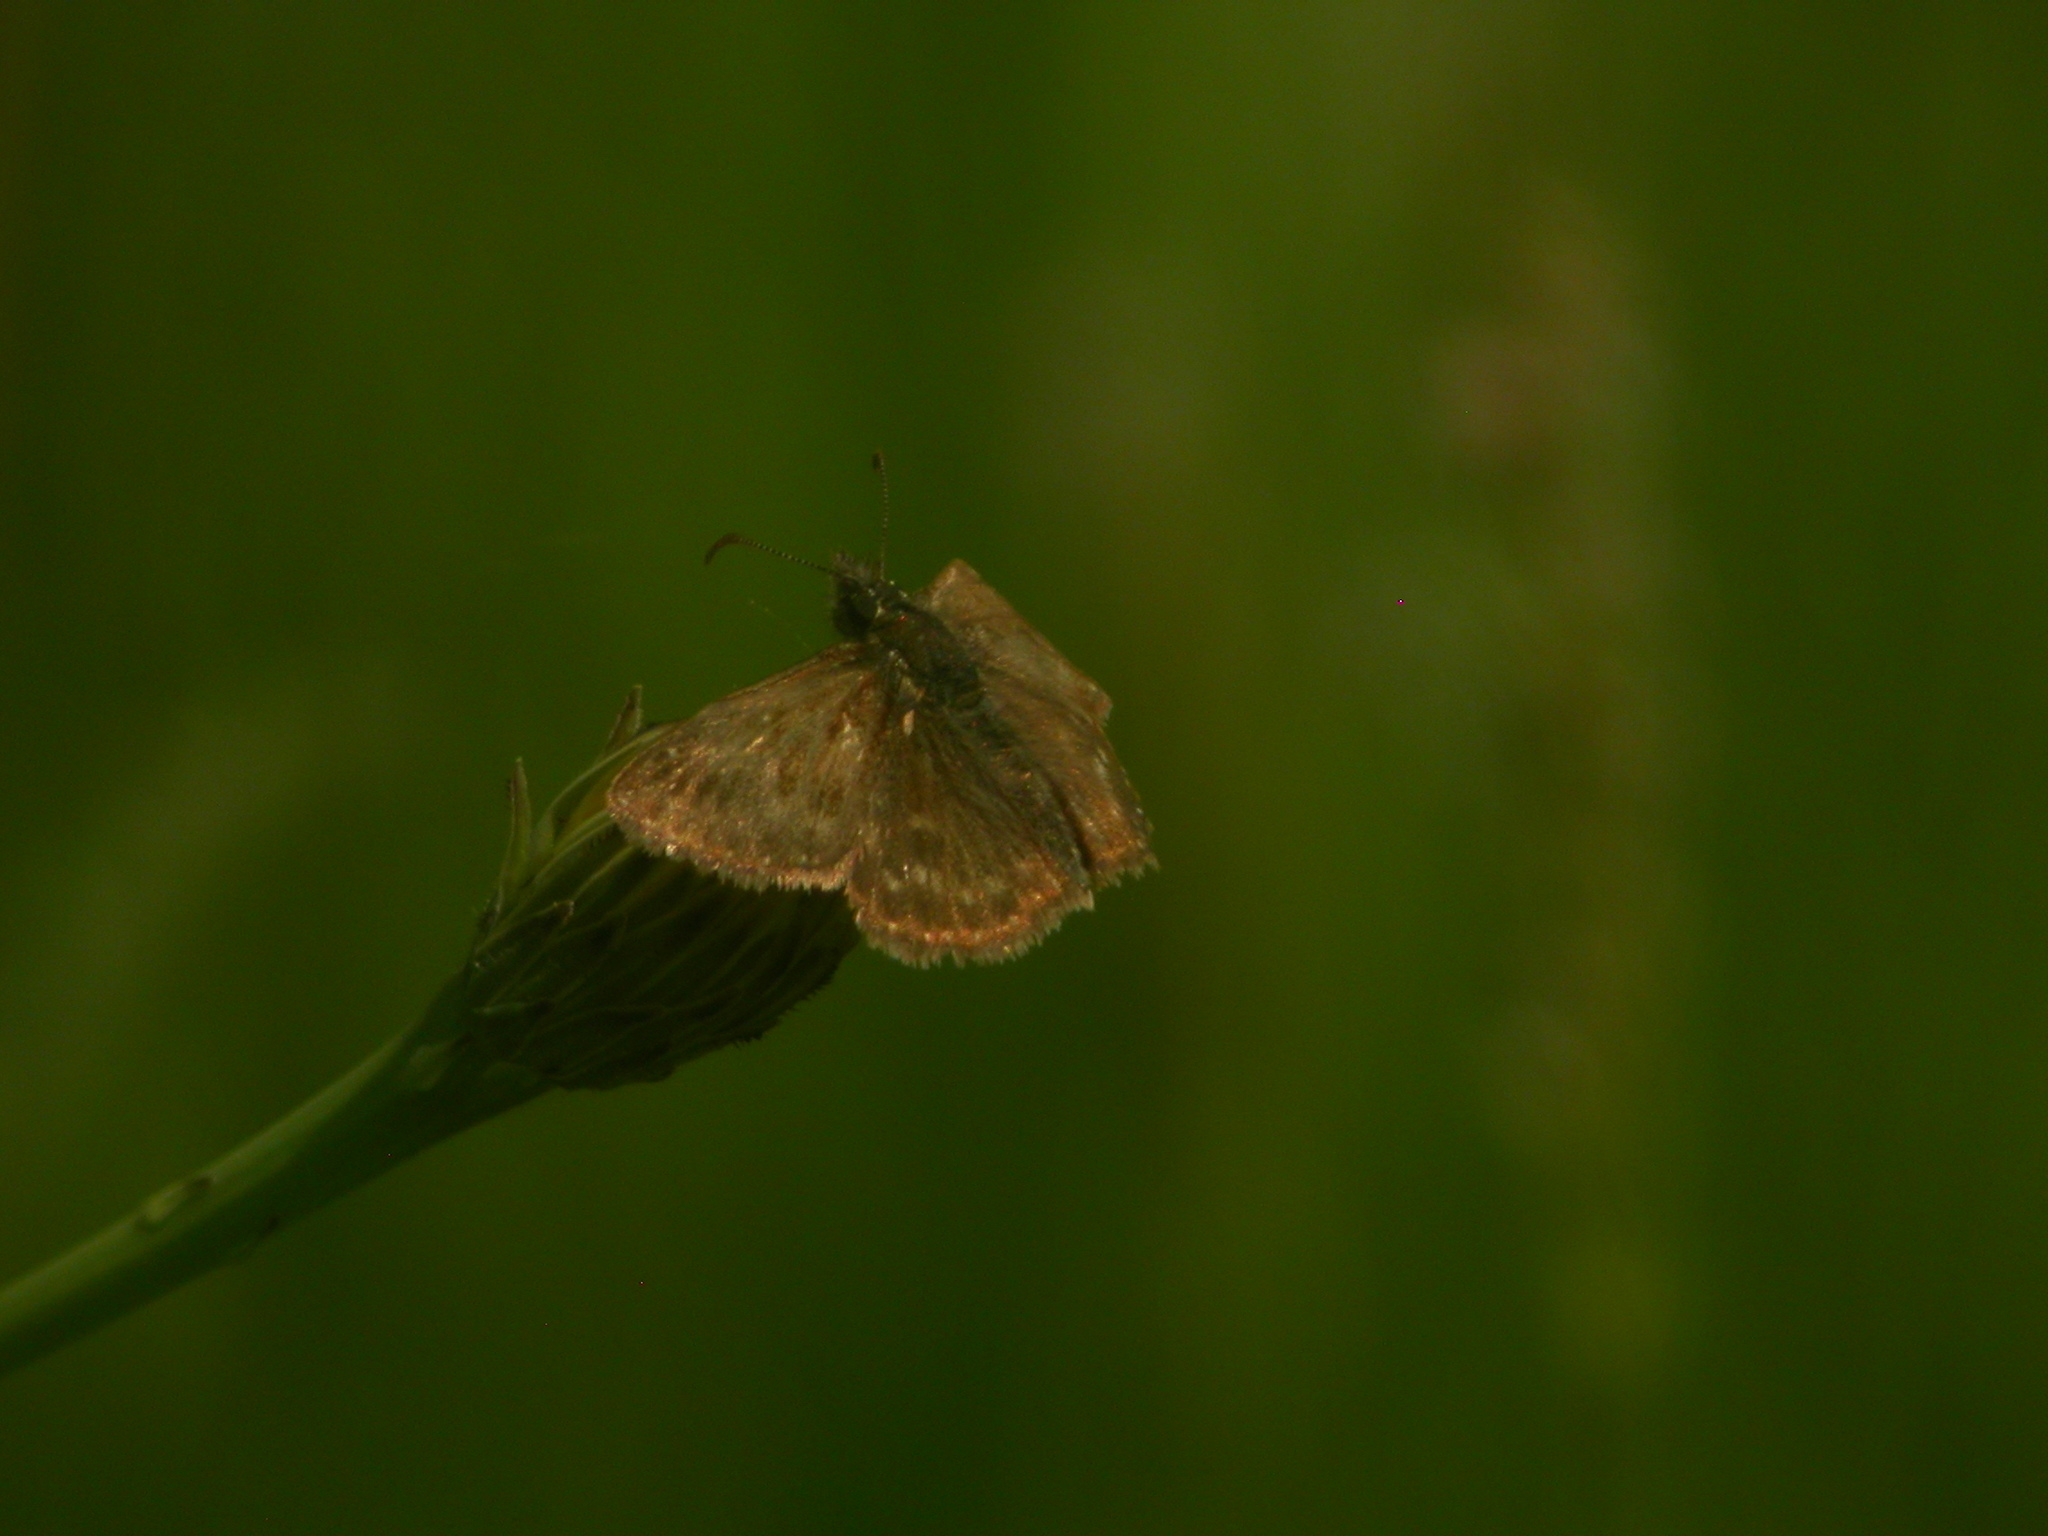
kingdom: Animalia
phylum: Arthropoda
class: Insecta
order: Lepidoptera
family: Hesperiidae
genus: Erynnis
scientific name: Erynnis tages
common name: Dingy skipper
